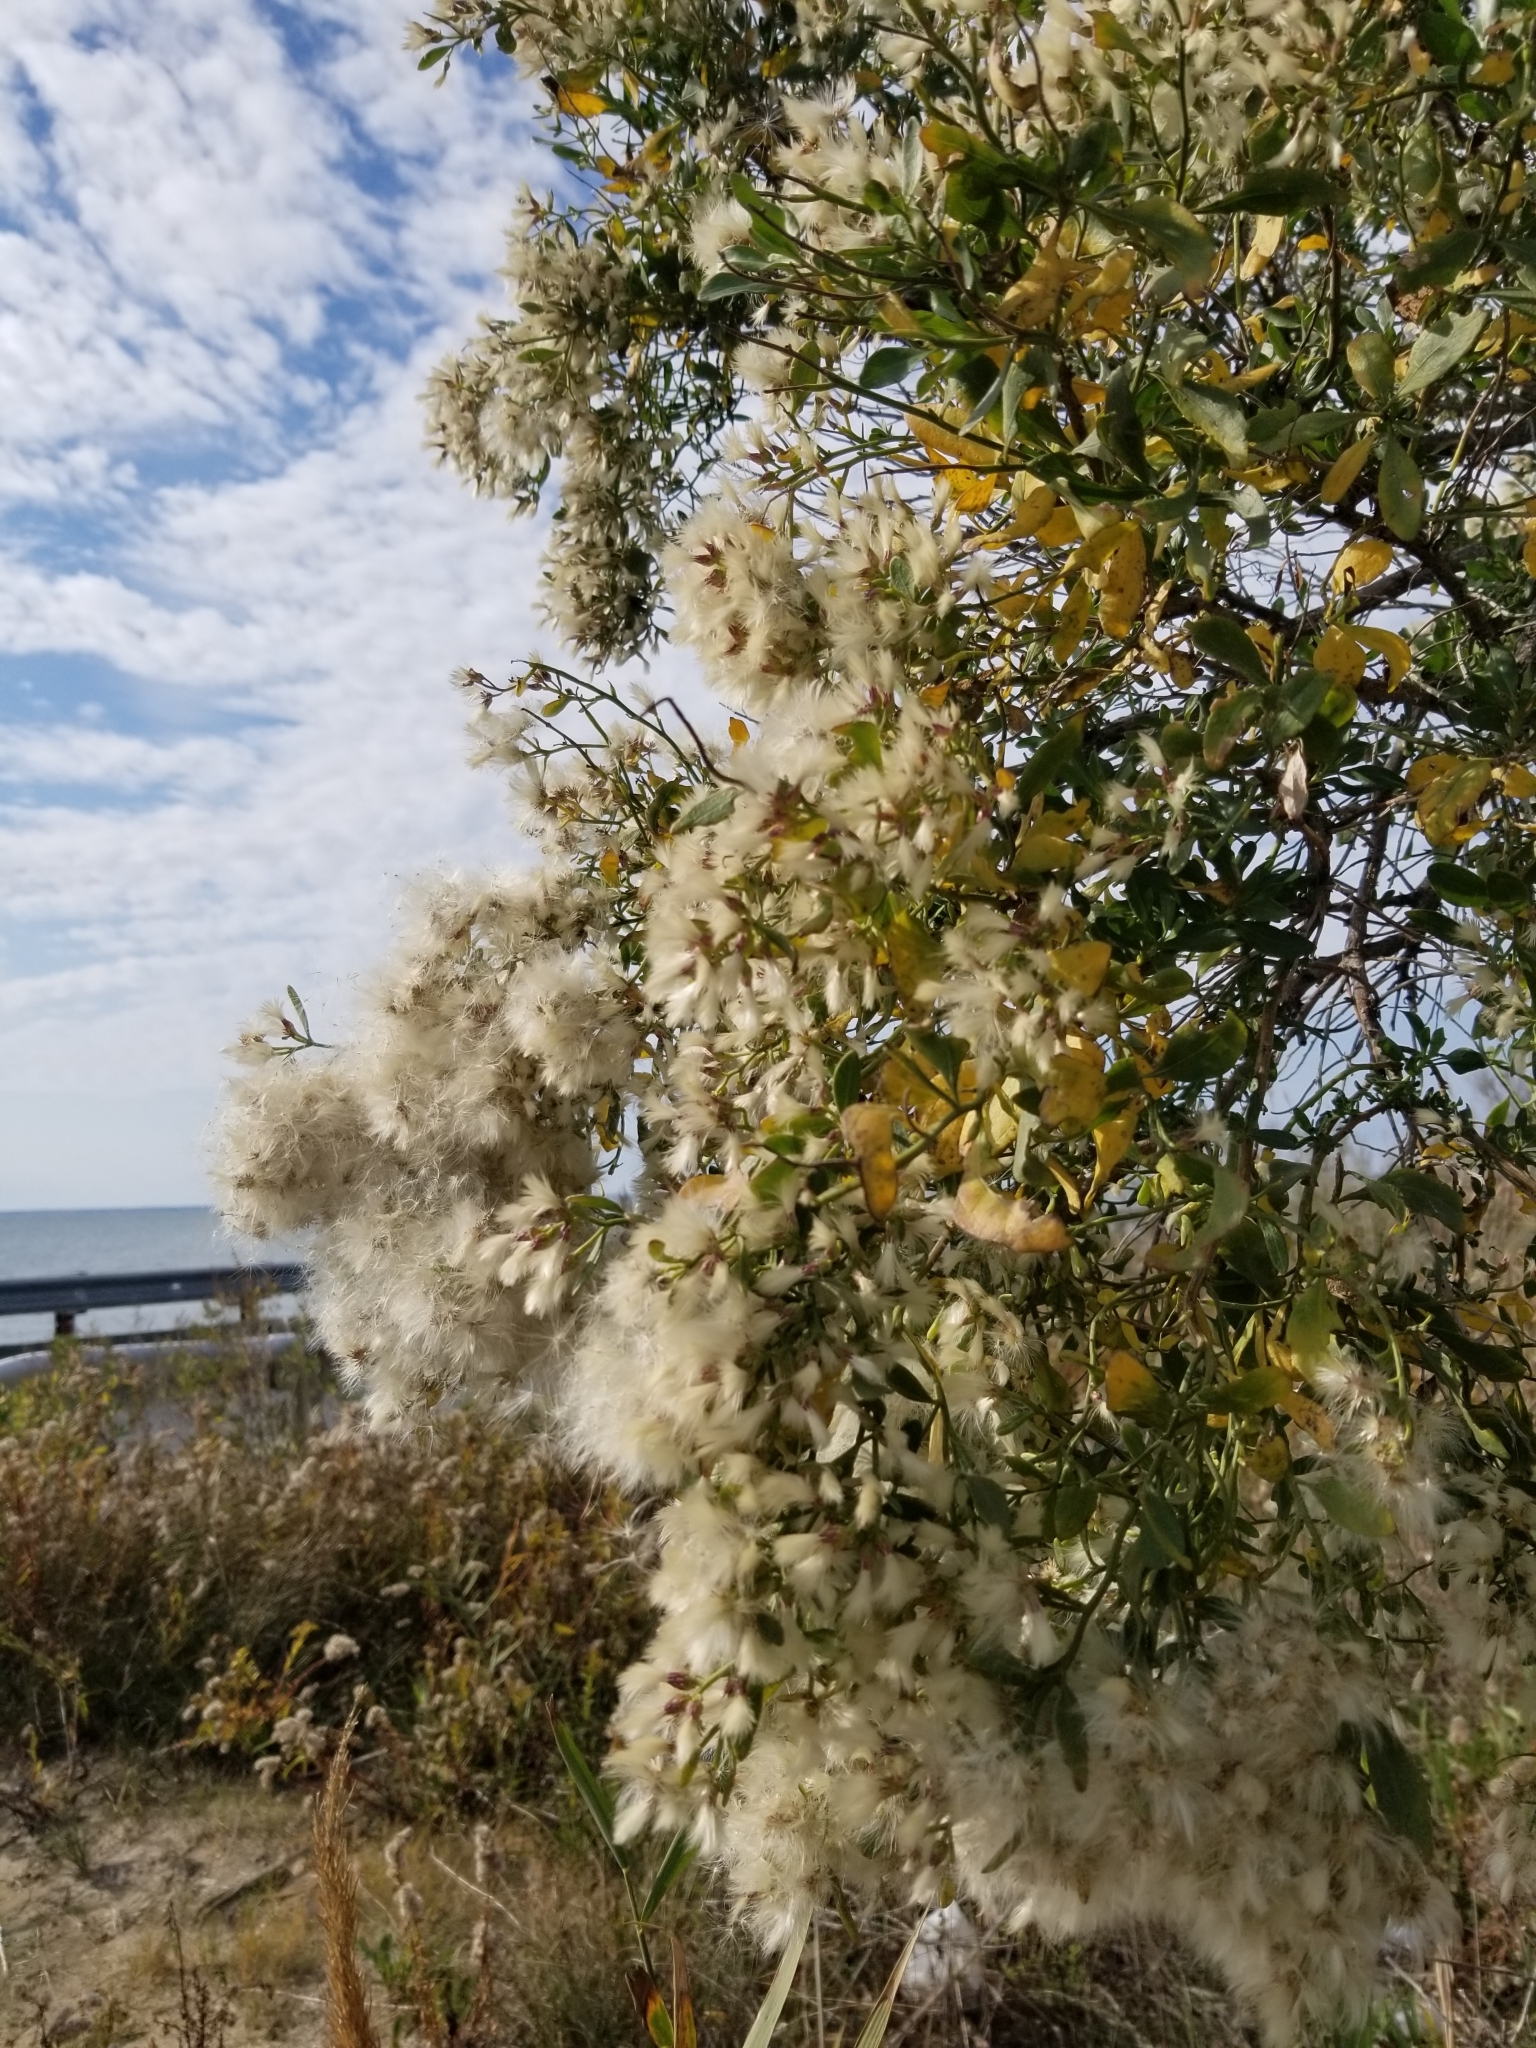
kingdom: Plantae
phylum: Tracheophyta
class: Magnoliopsida
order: Asterales
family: Asteraceae
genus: Baccharis
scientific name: Baccharis halimifolia
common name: Eastern baccharis
